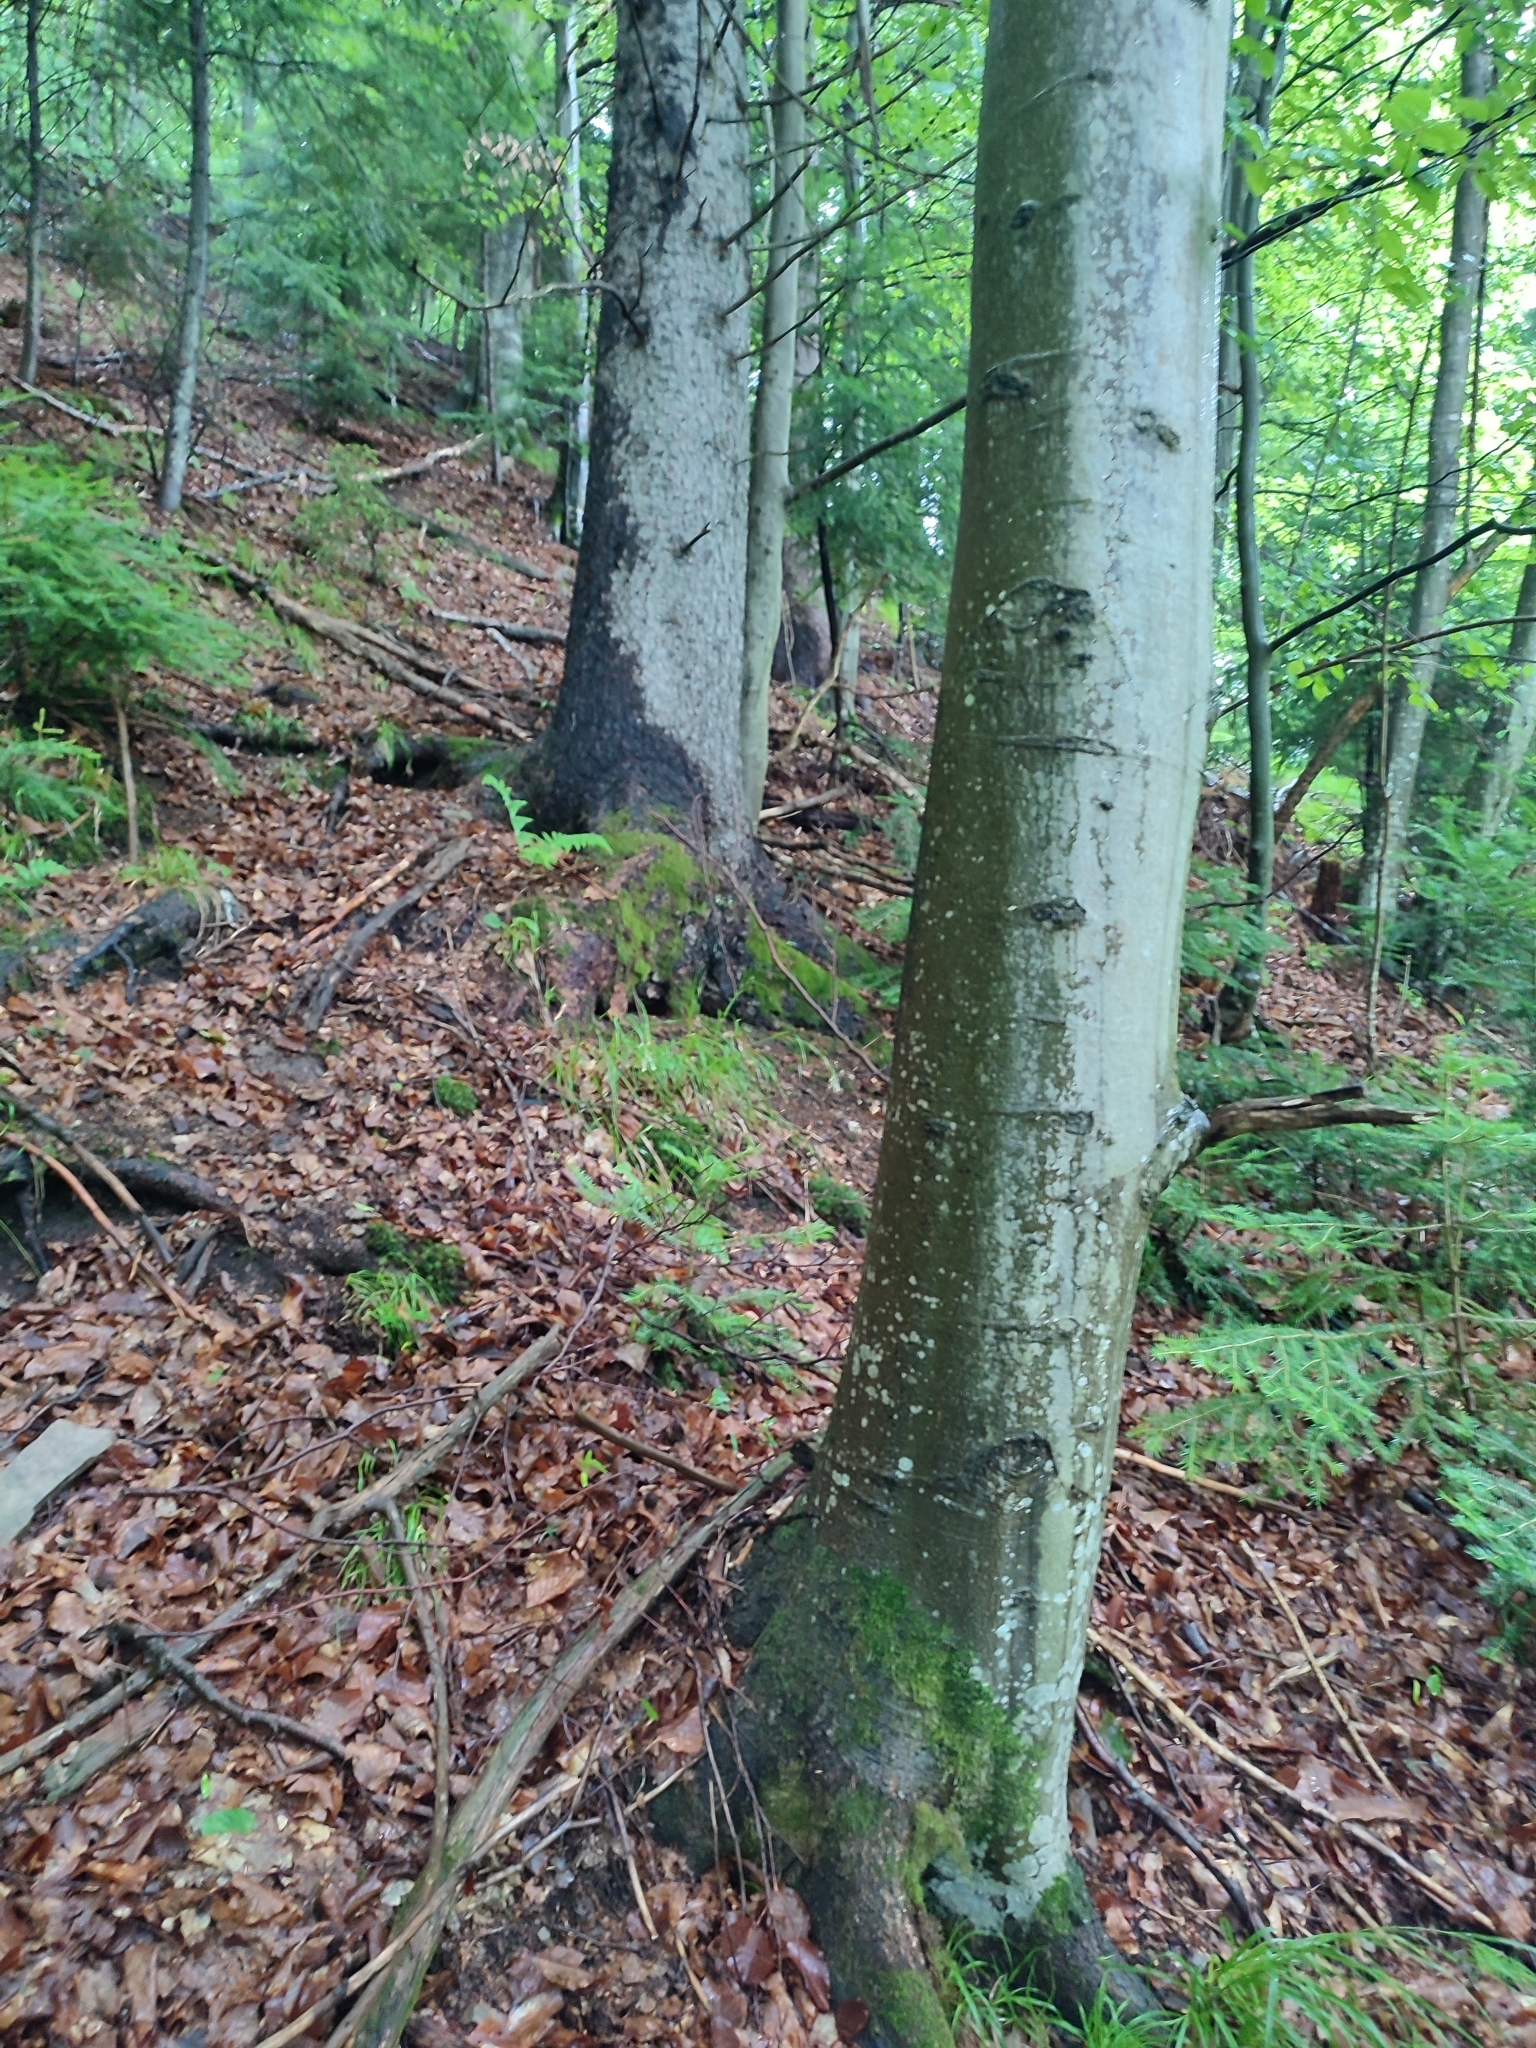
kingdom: Plantae
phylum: Tracheophyta
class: Magnoliopsida
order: Fagales
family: Fagaceae
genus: Fagus
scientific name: Fagus sylvatica
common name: Beech
